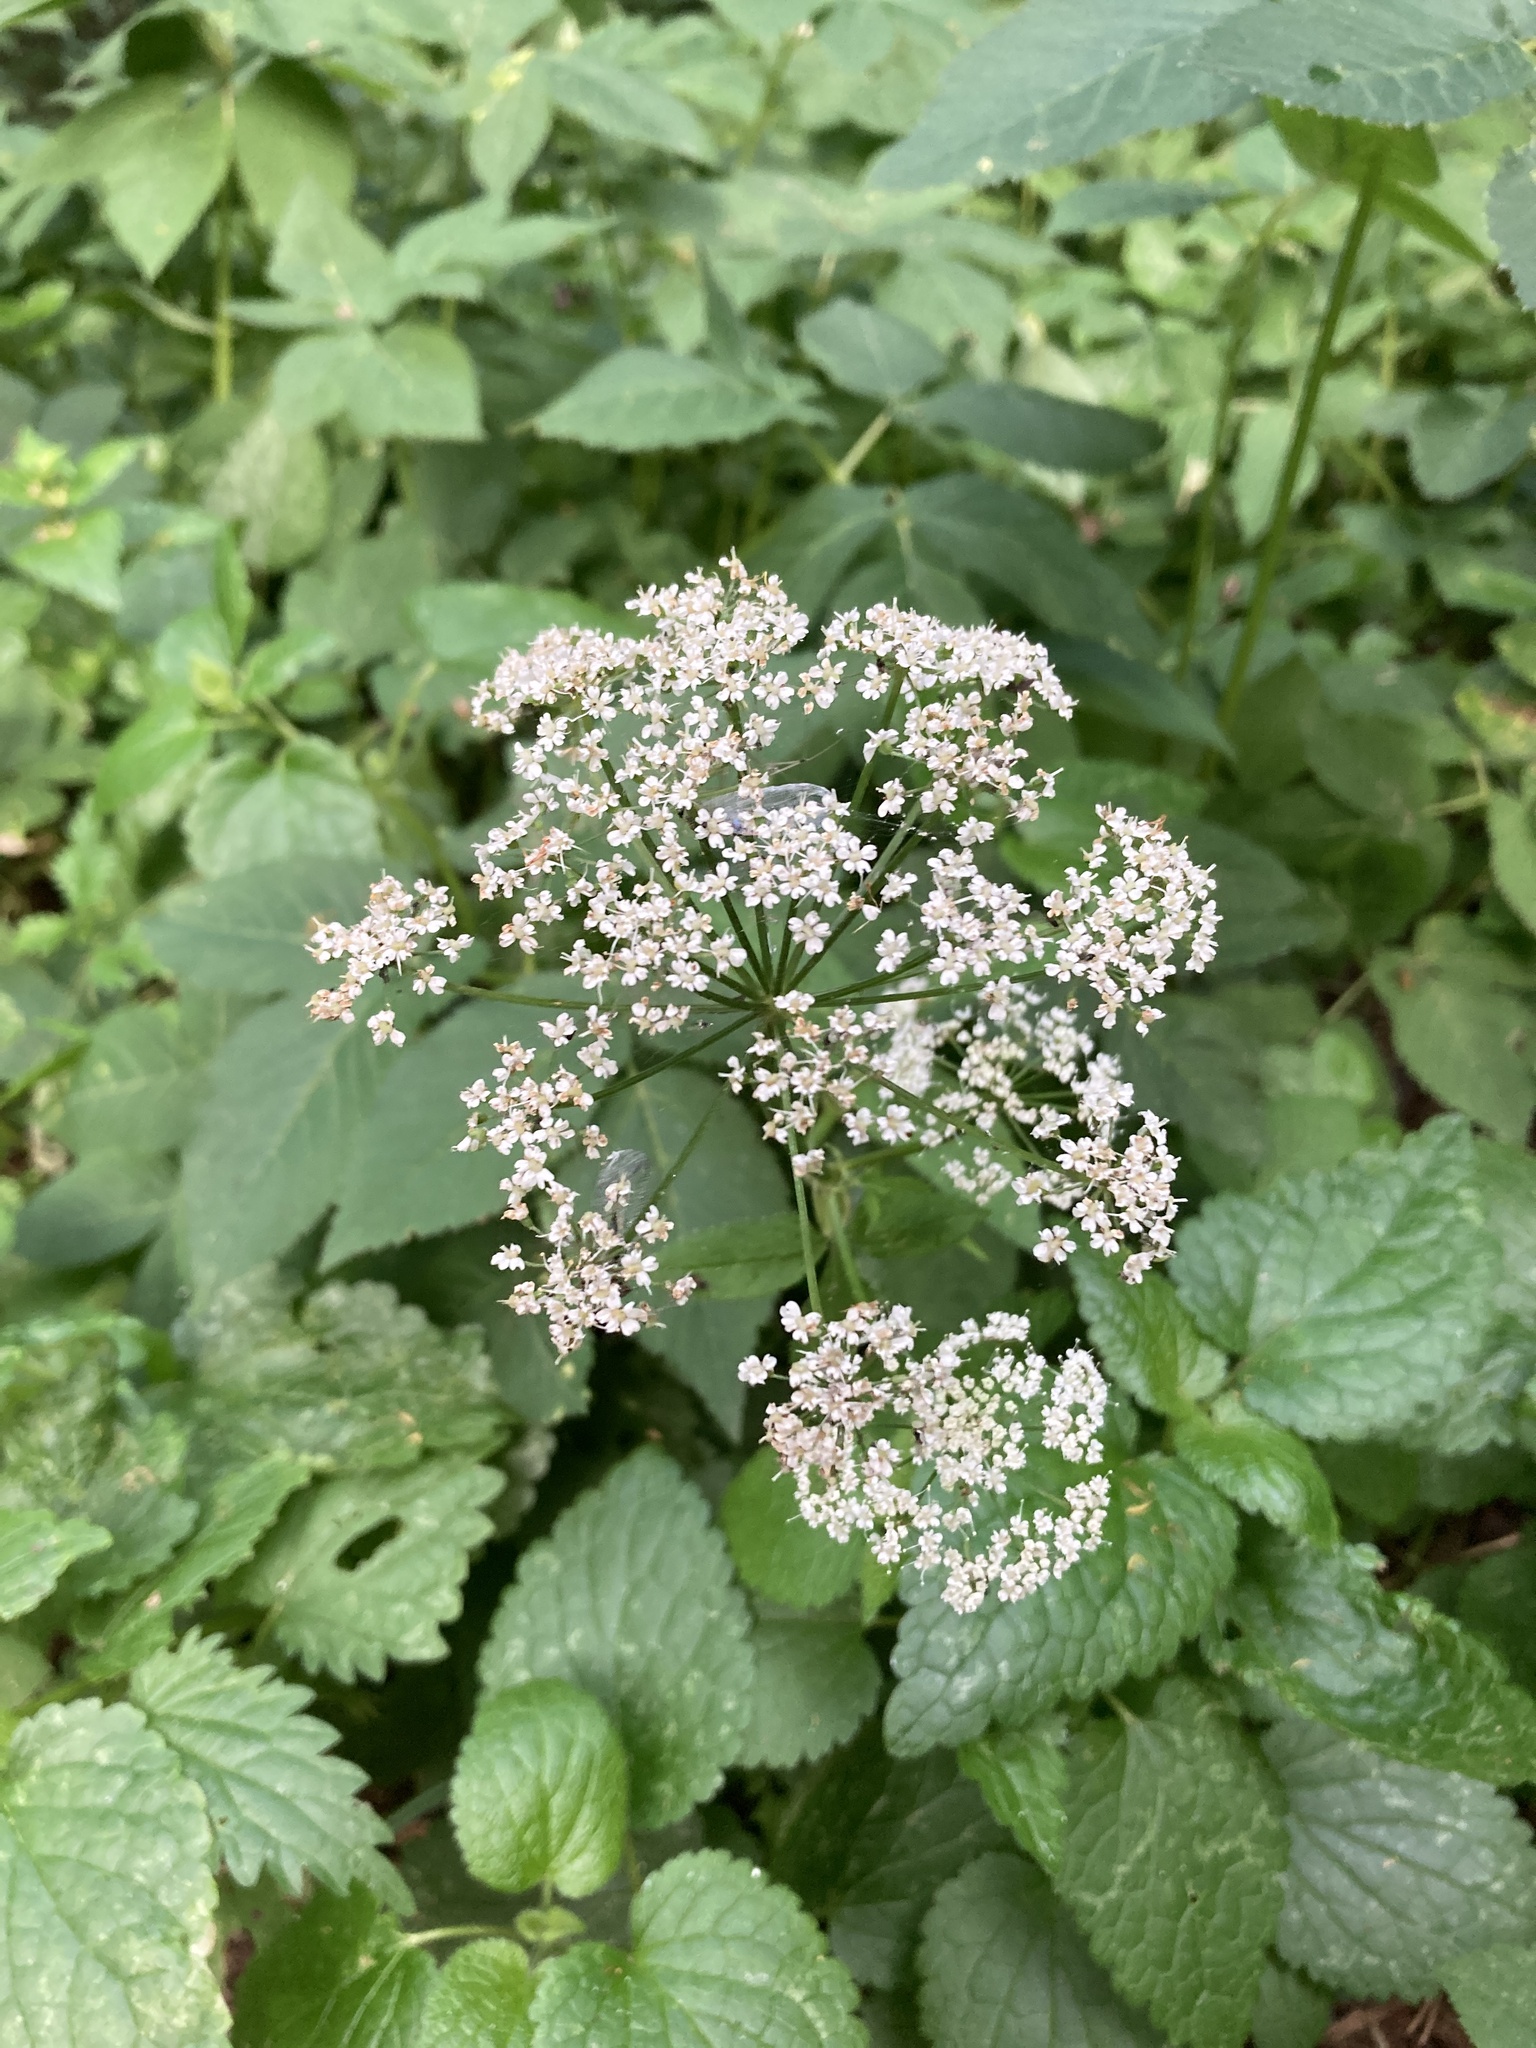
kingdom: Plantae
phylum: Tracheophyta
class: Magnoliopsida
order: Apiales
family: Apiaceae
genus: Aegopodium
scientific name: Aegopodium podagraria
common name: Ground-elder
